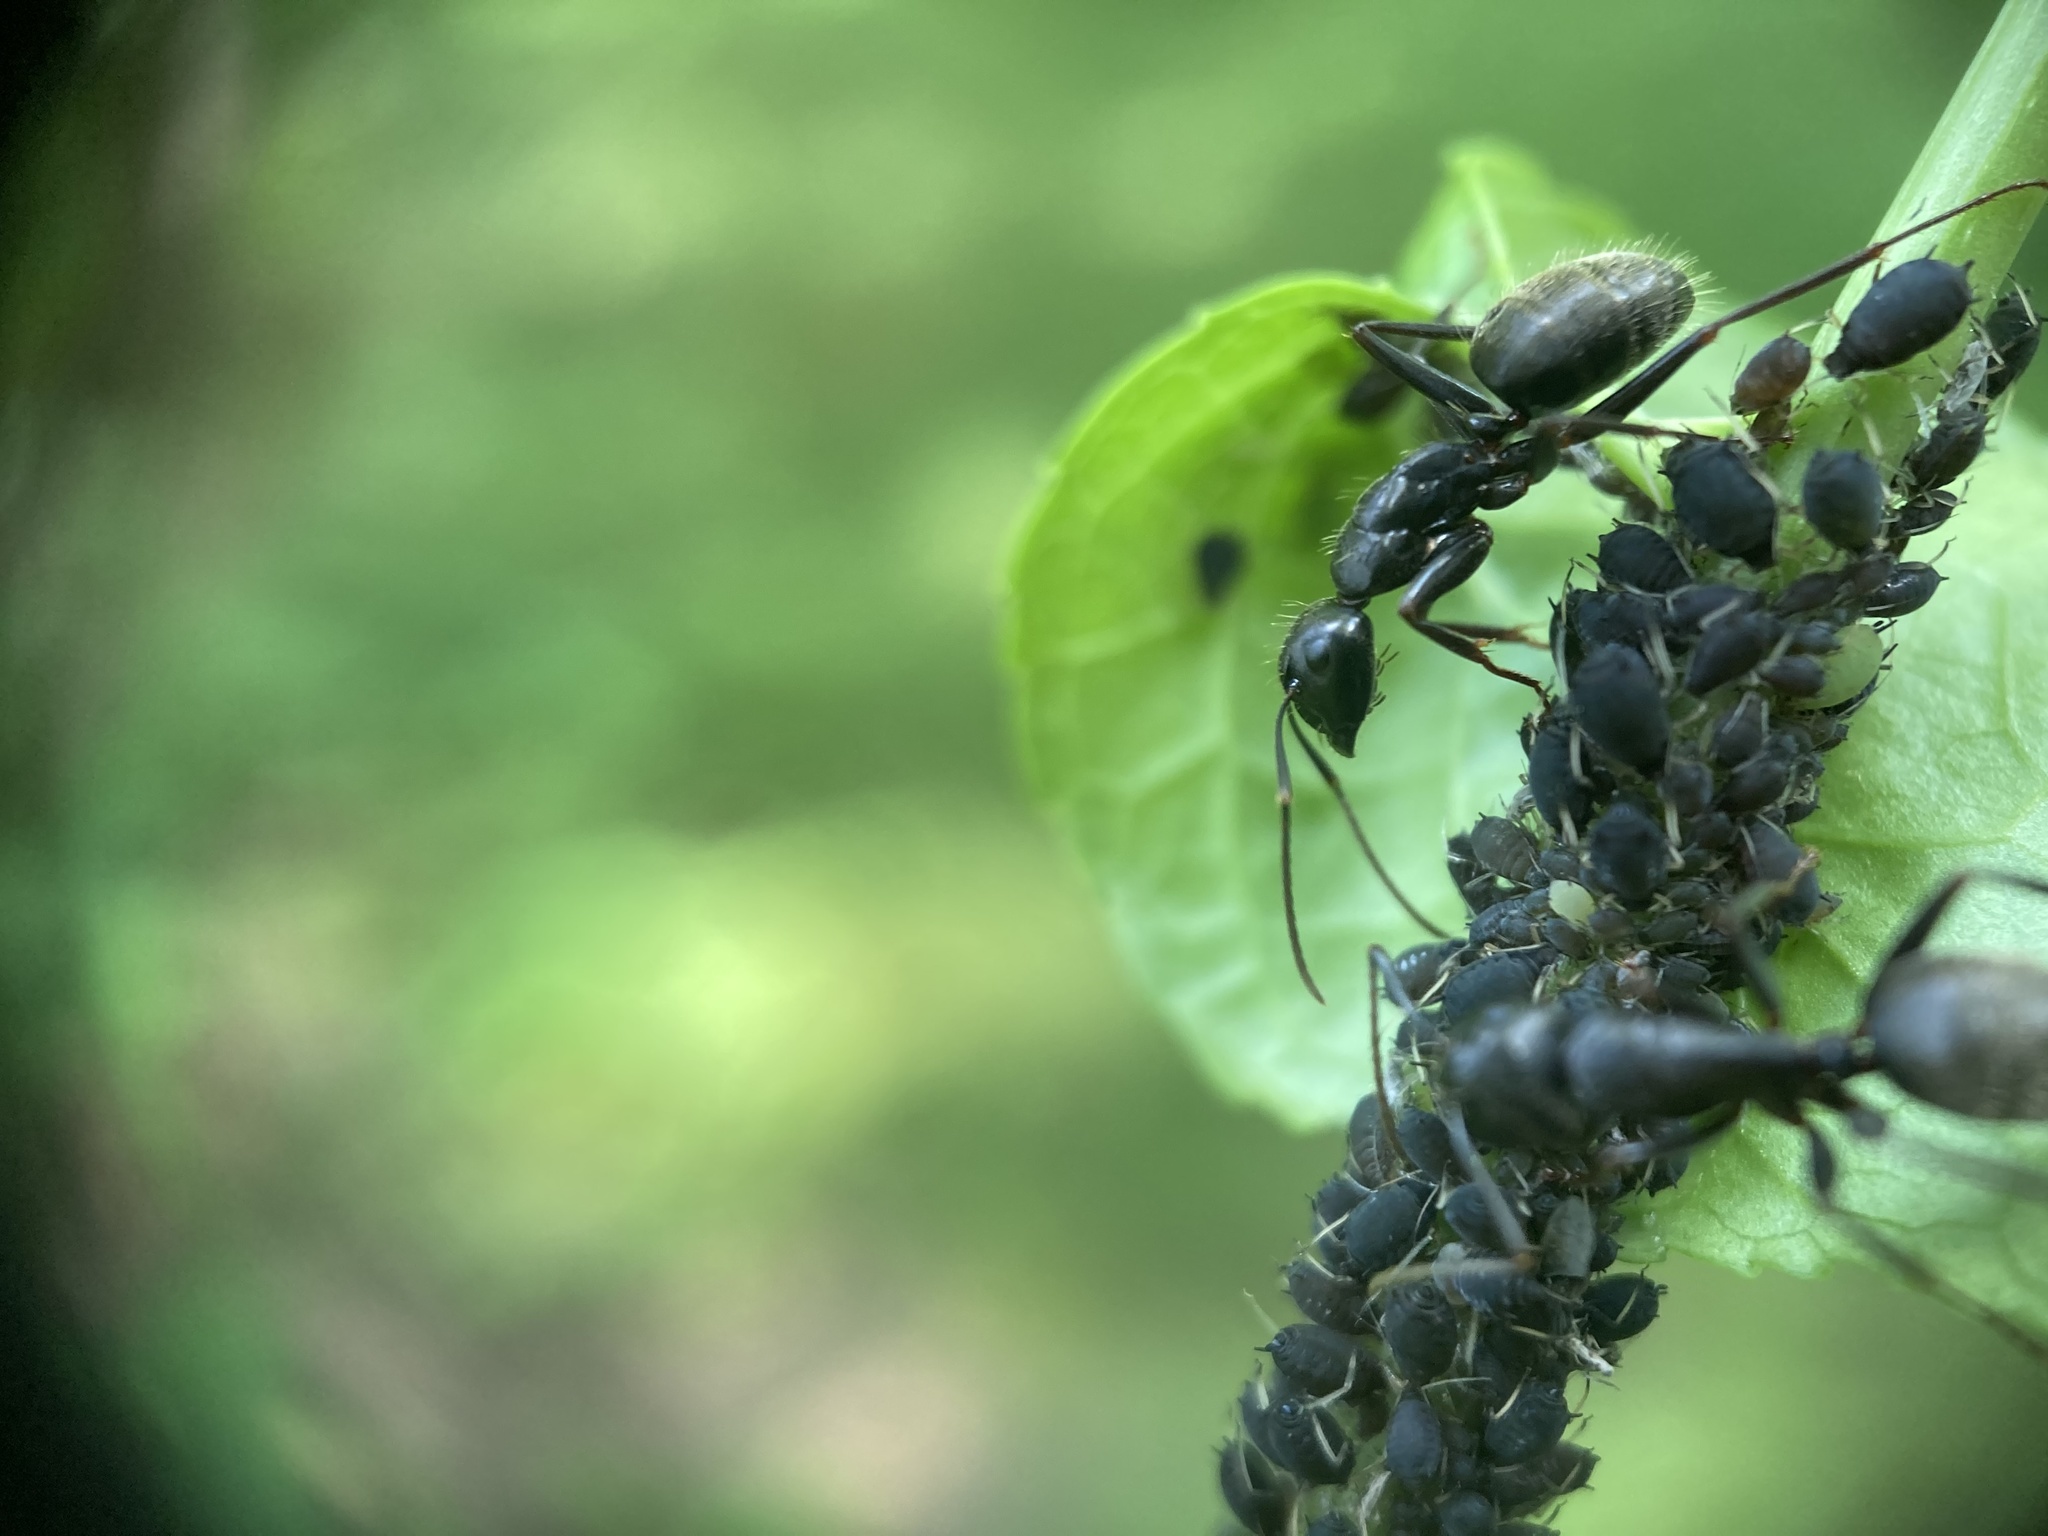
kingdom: Animalia
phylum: Arthropoda
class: Insecta
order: Hymenoptera
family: Formicidae
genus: Camponotus
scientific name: Camponotus pennsylvanicus
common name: Black carpenter ant
